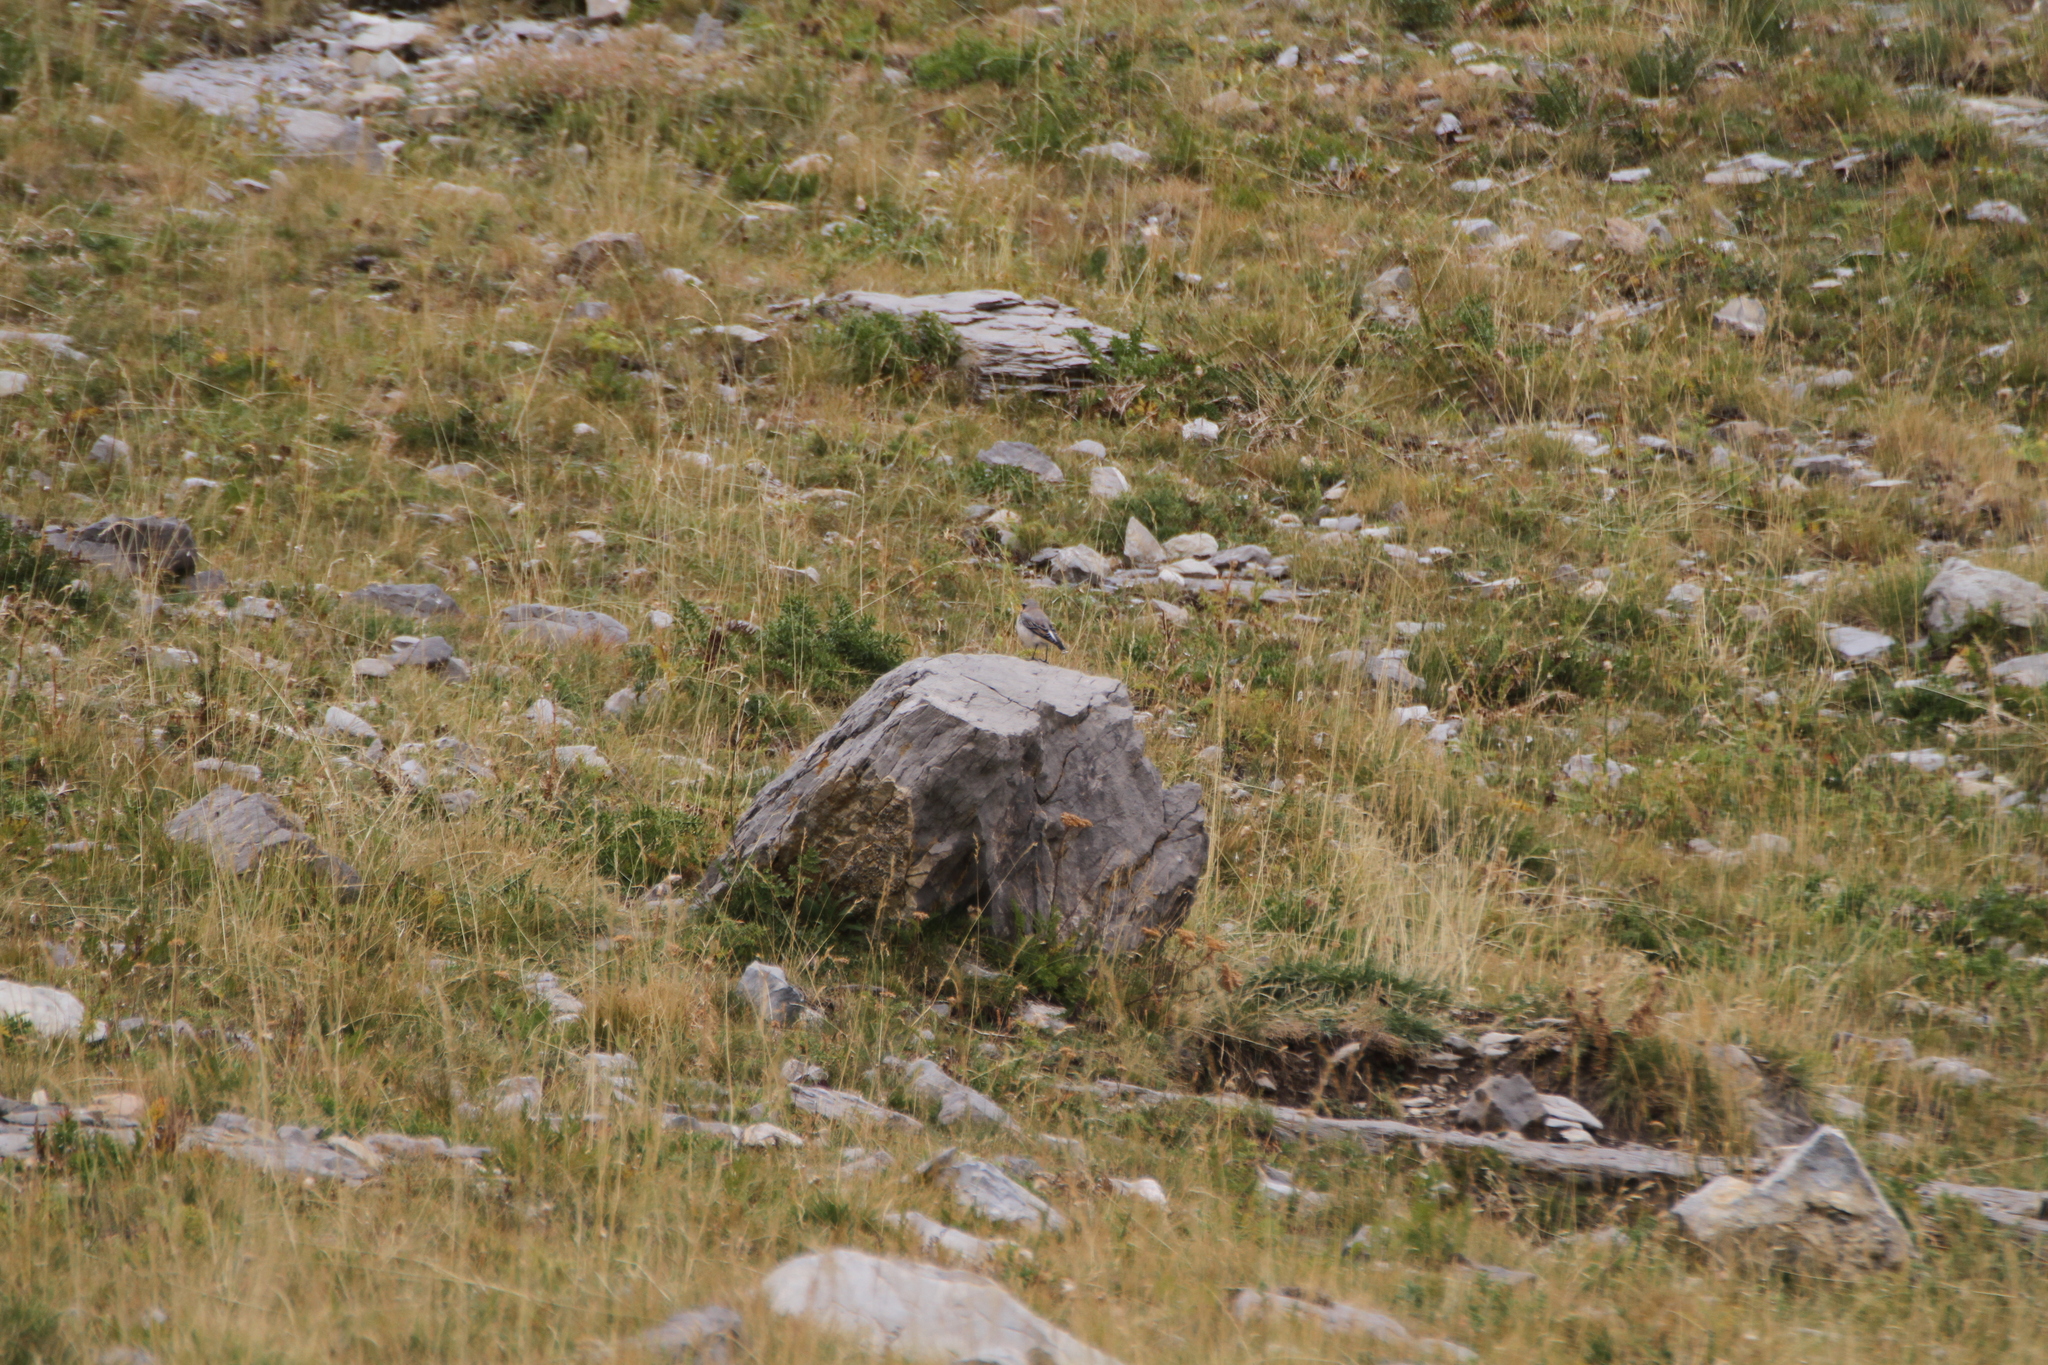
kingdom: Animalia
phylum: Chordata
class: Aves
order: Passeriformes
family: Muscicapidae
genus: Oenanthe
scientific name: Oenanthe oenanthe
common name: Northern wheatear
